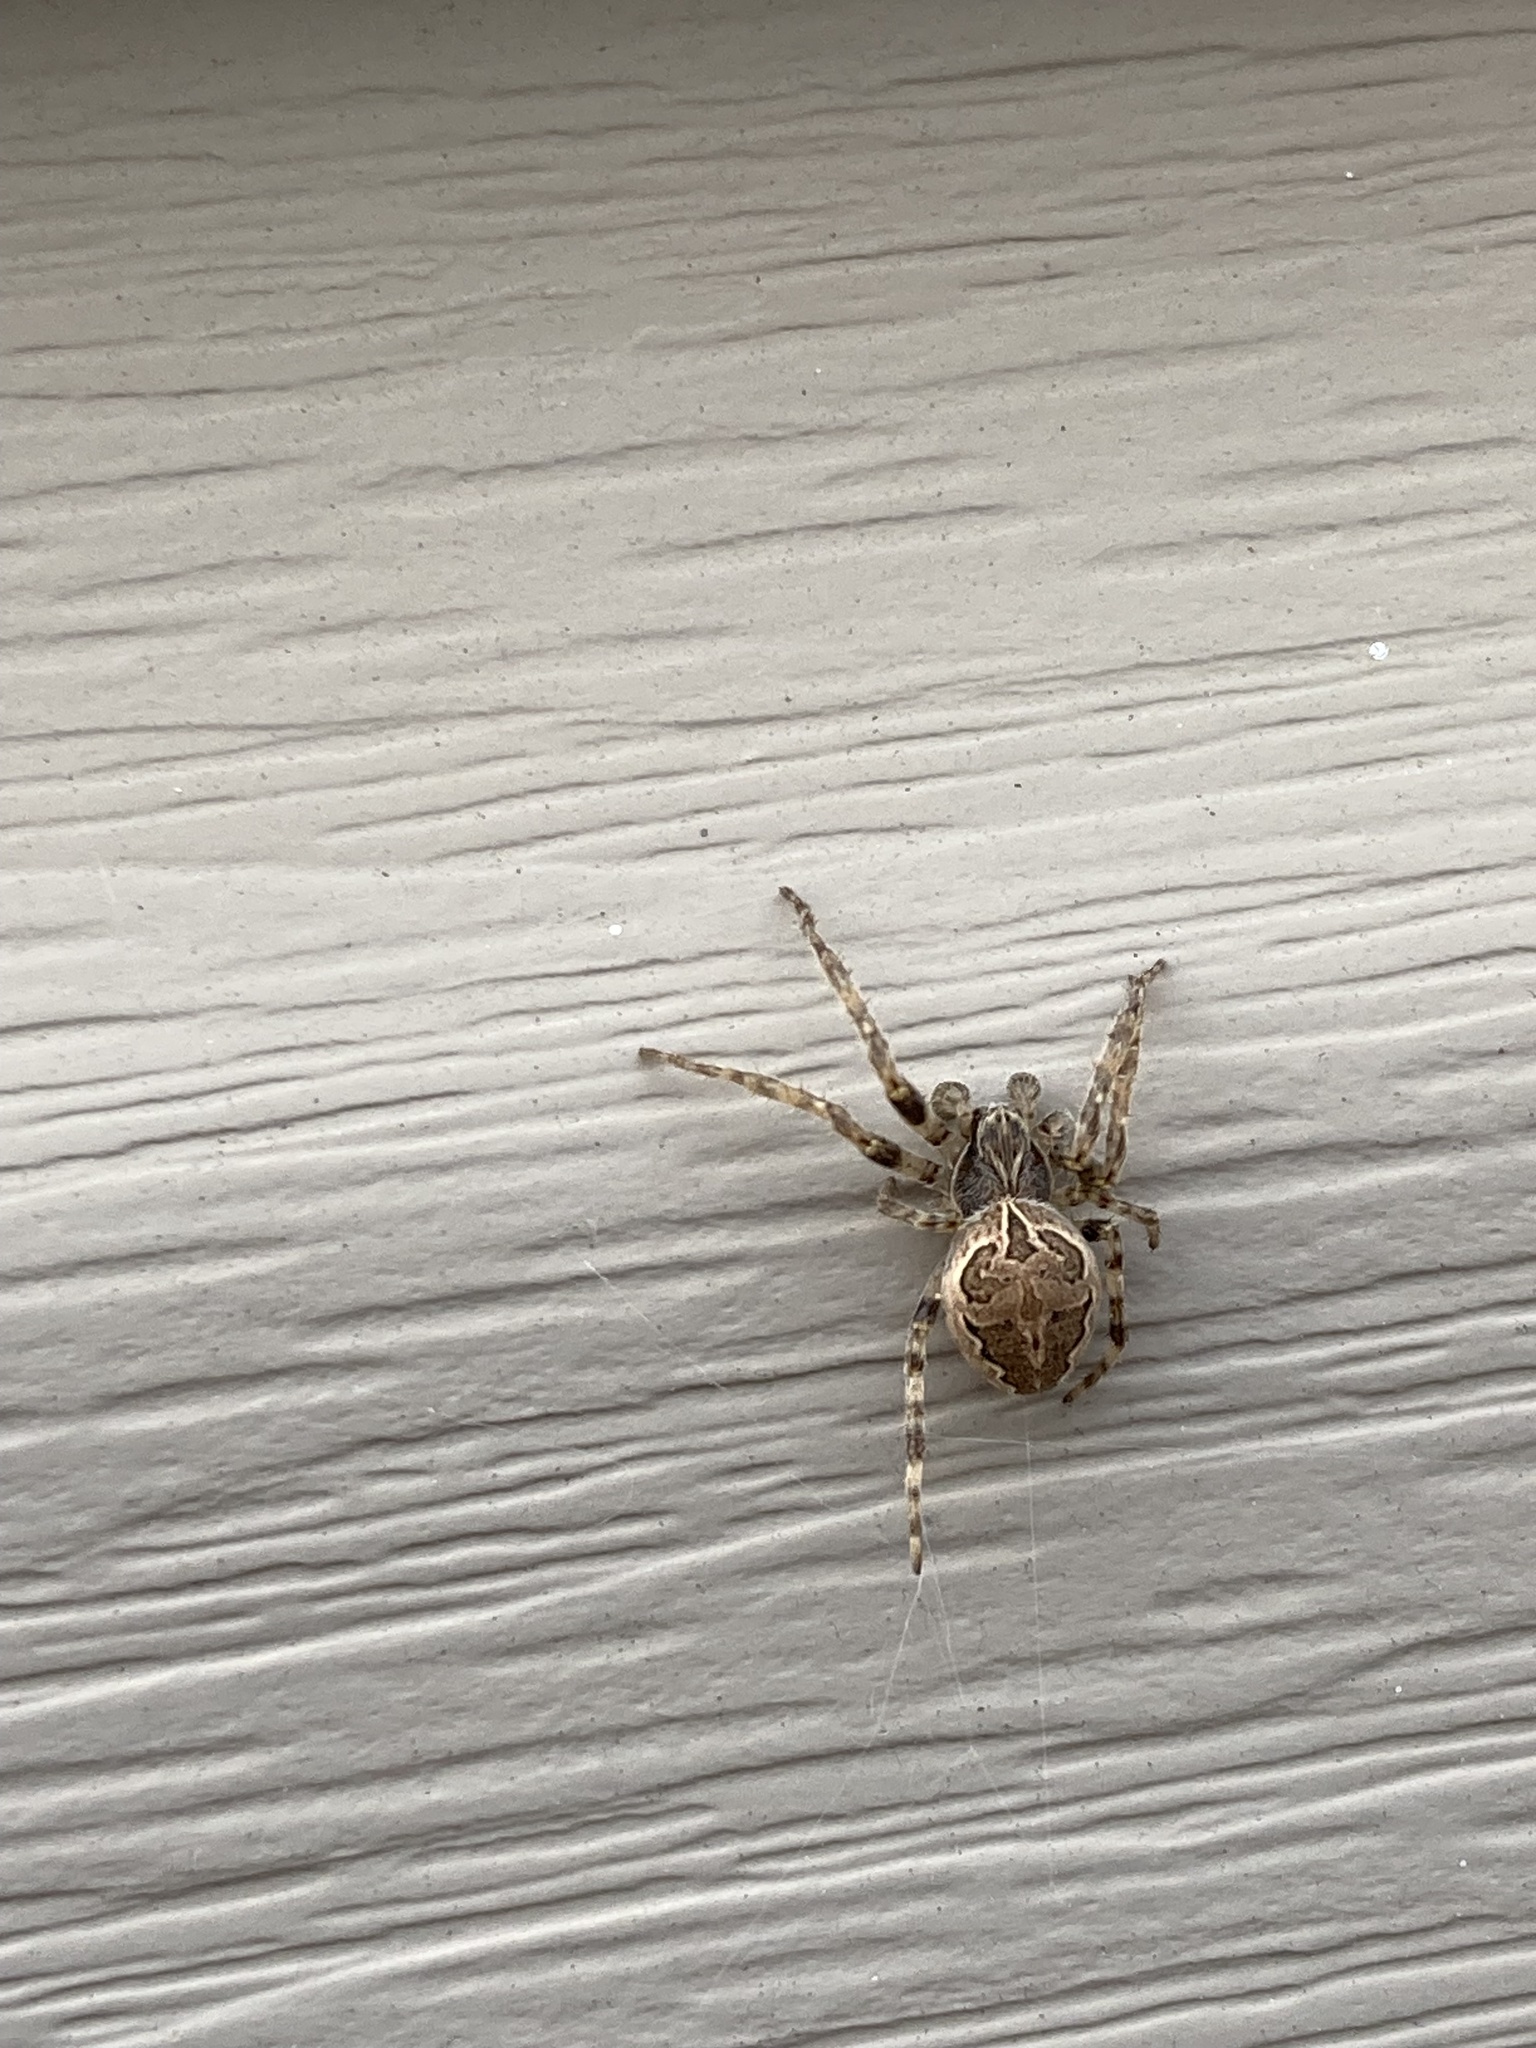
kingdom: Animalia
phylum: Arthropoda
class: Arachnida
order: Araneae
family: Araneidae
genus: Larinioides
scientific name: Larinioides sclopetarius
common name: Bridge orbweaver
